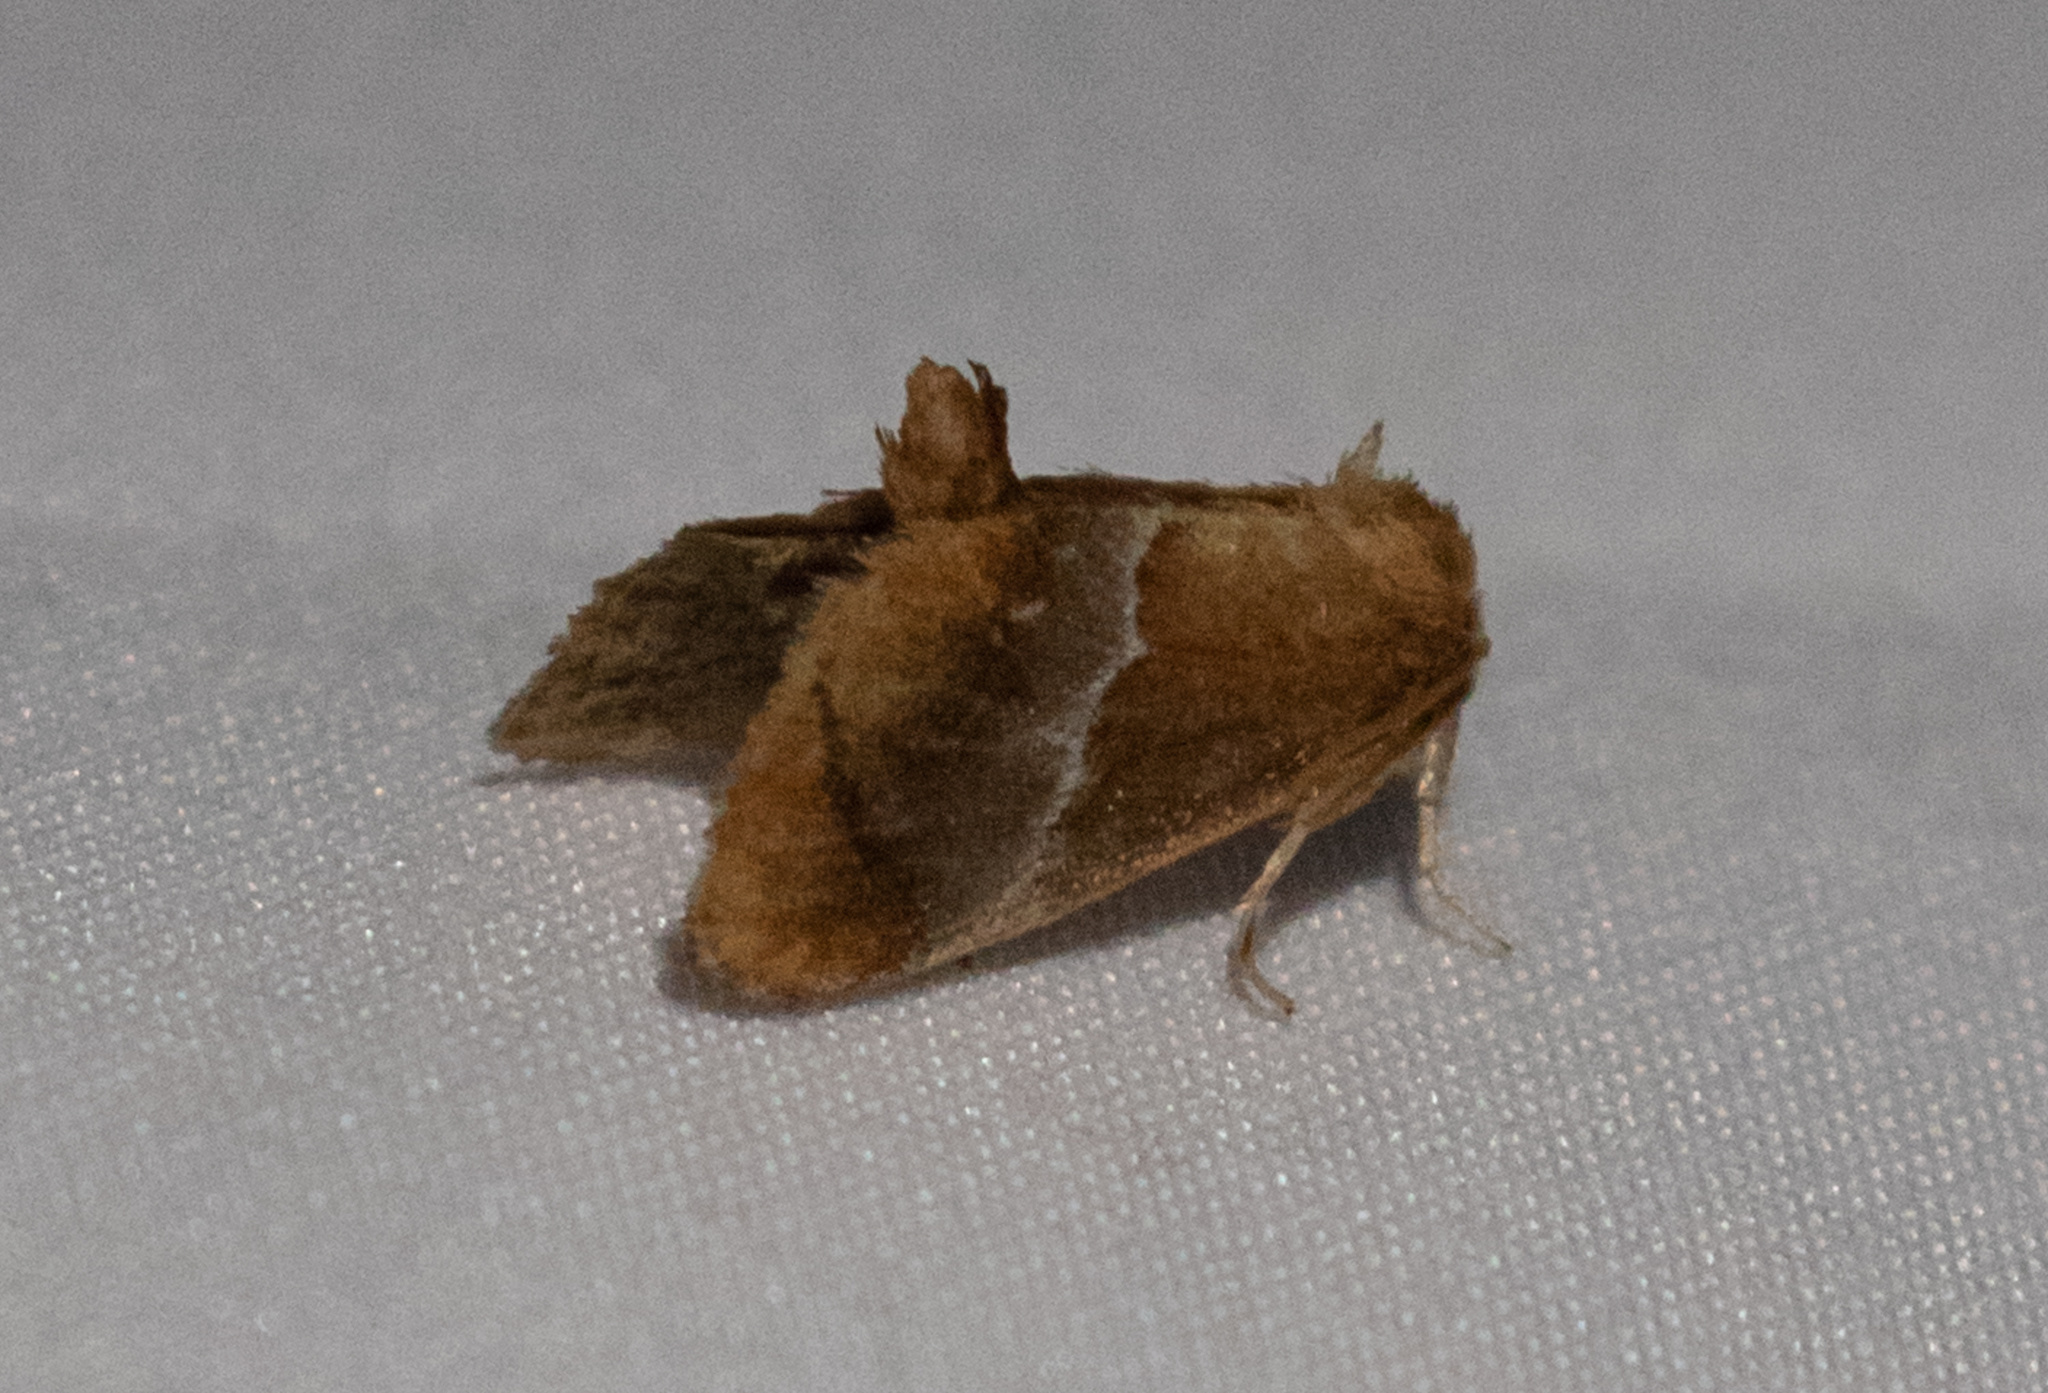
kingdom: Animalia
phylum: Arthropoda
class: Insecta
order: Lepidoptera
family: Limacodidae
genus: Lithacodes
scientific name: Lithacodes fasciola
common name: Yellow-shouldered slug moth
